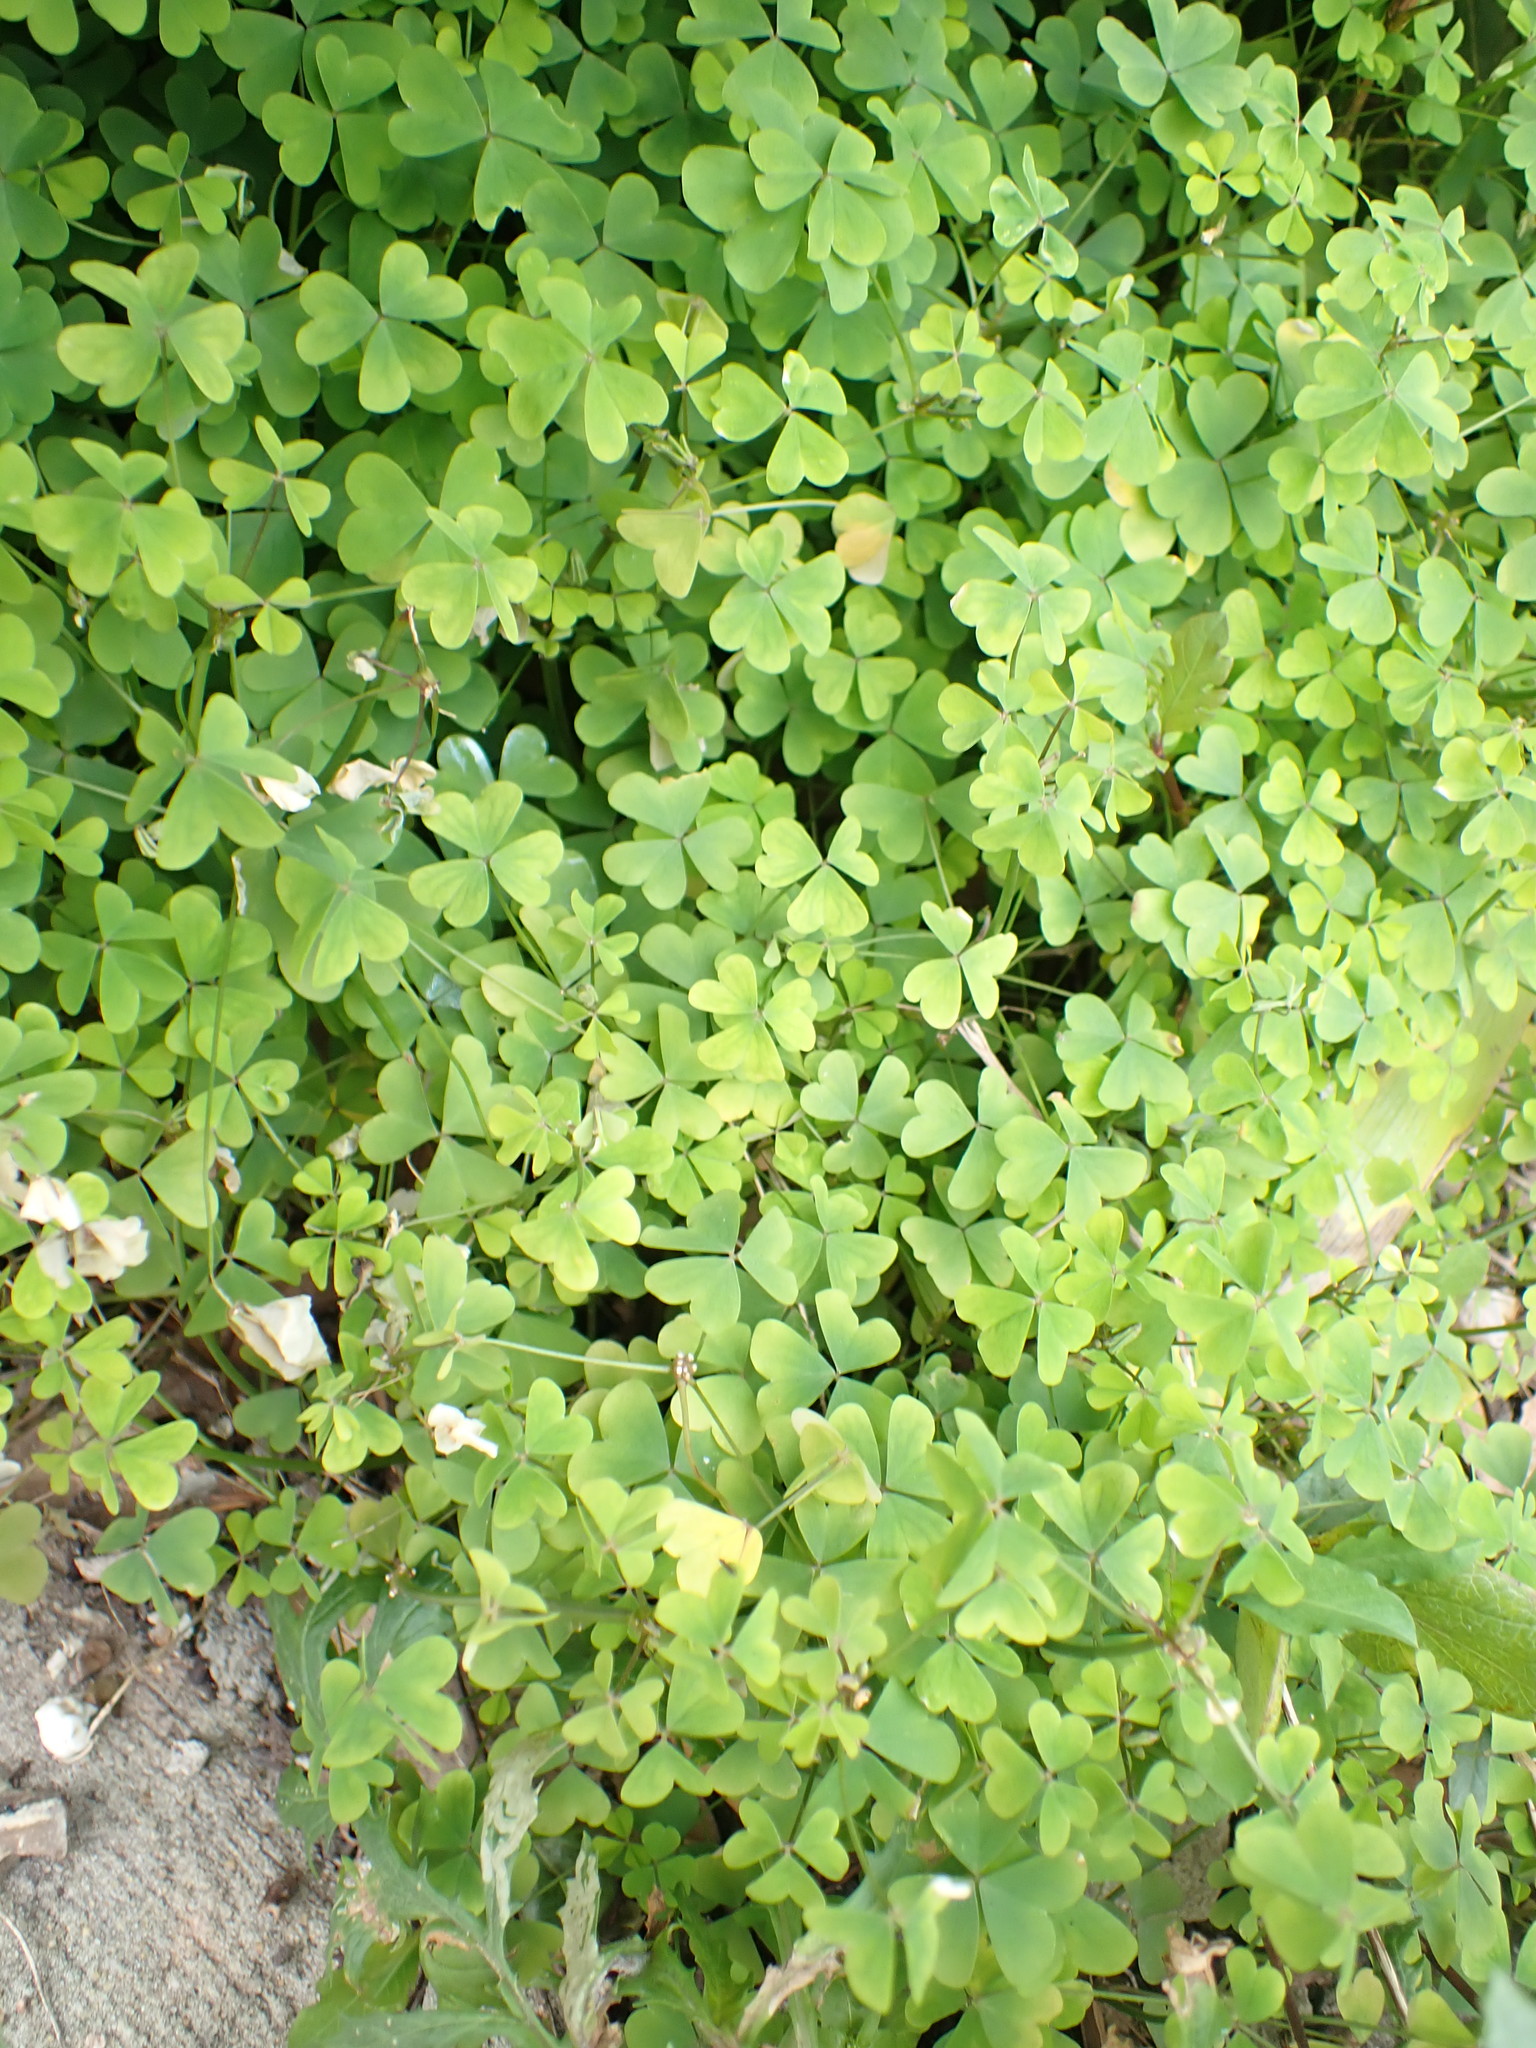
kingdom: Plantae
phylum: Tracheophyta
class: Magnoliopsida
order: Oxalidales
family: Oxalidaceae
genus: Oxalis
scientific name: Oxalis incarnata
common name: Pale pink-sorrel
